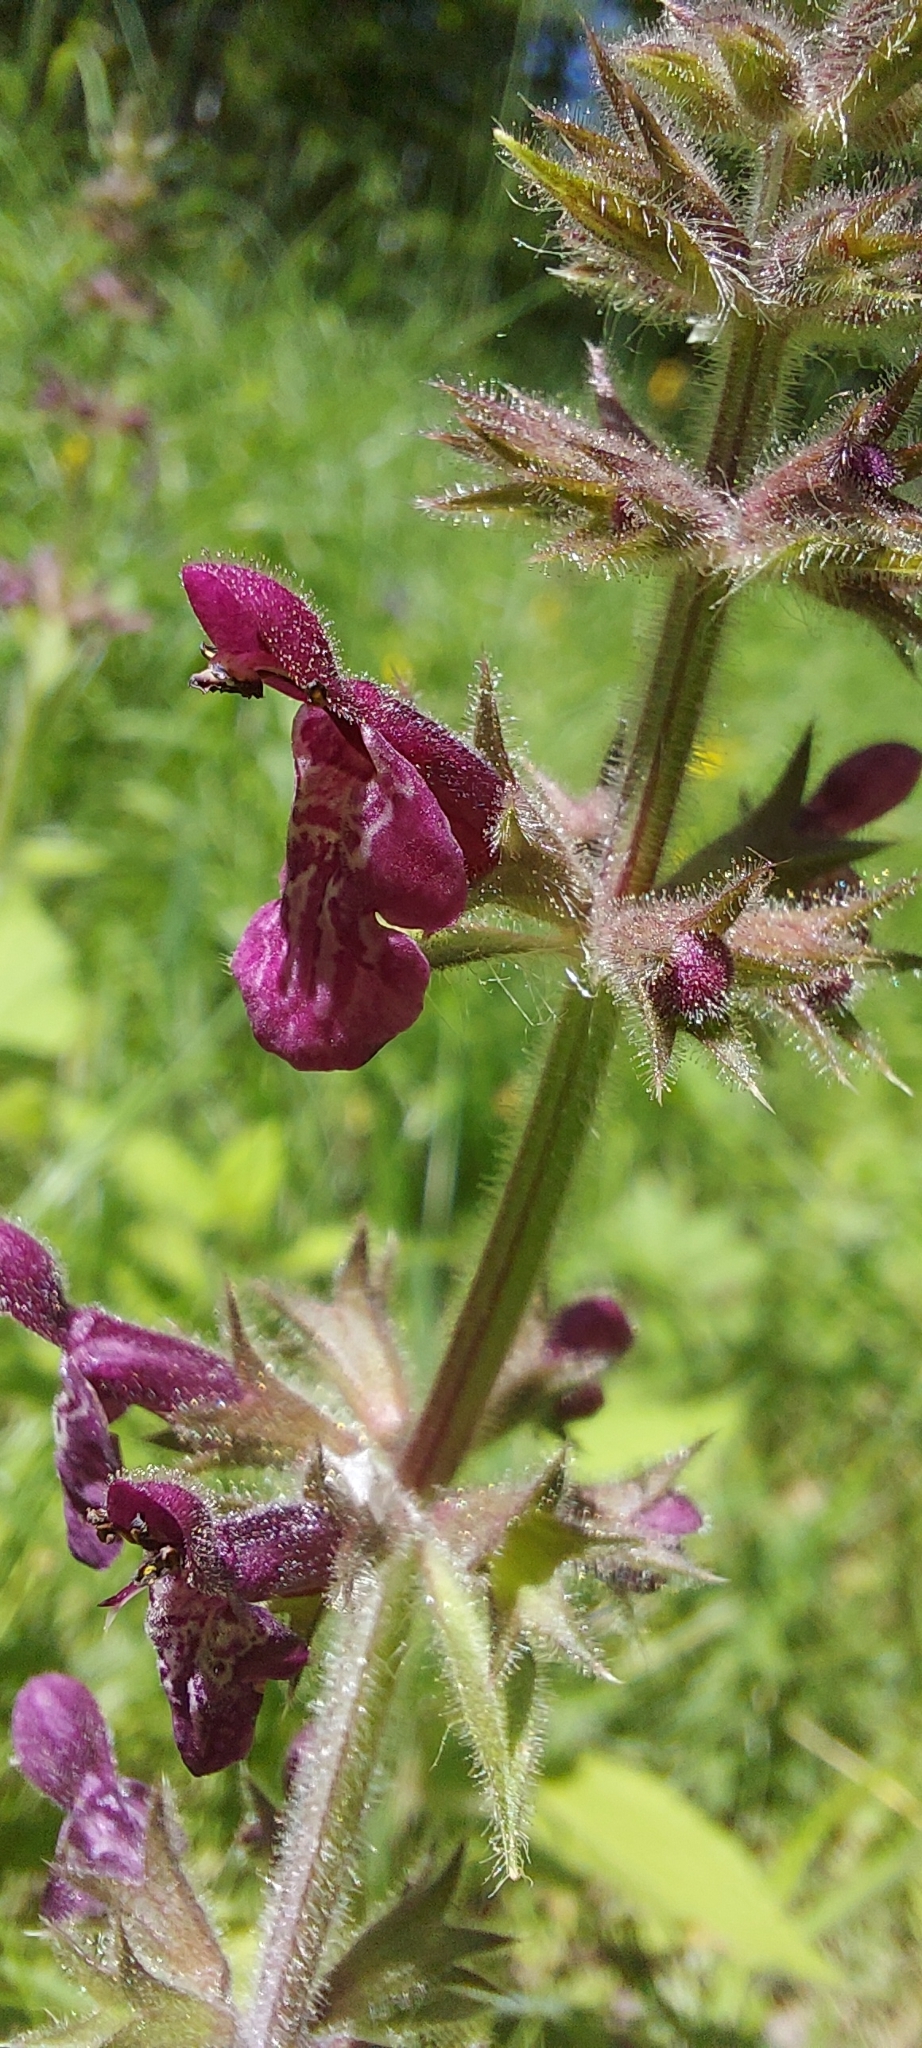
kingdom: Plantae
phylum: Tracheophyta
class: Magnoliopsida
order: Lamiales
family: Lamiaceae
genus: Stachys
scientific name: Stachys sylvatica
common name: Hedge woundwort
